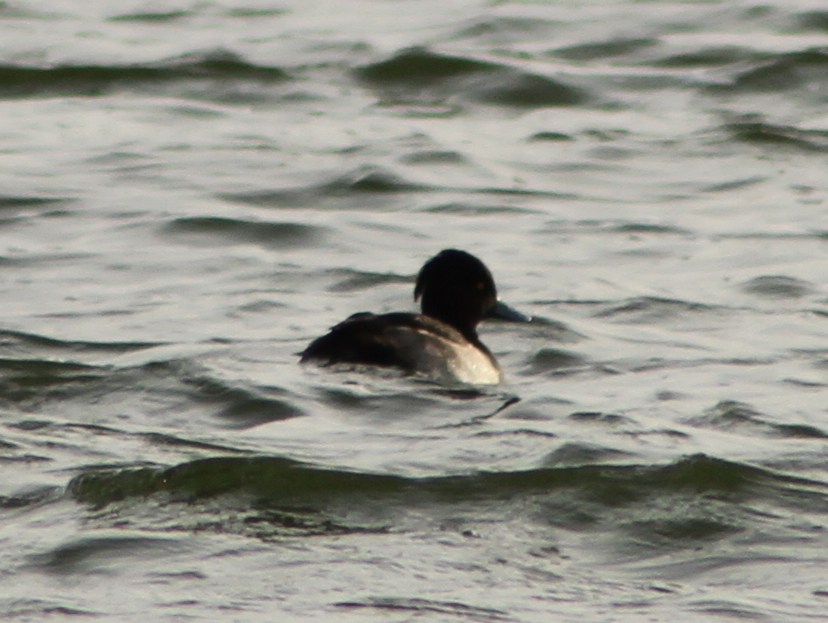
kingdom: Animalia
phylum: Chordata
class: Aves
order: Anseriformes
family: Anatidae
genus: Aythya
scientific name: Aythya fuligula
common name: Tufted duck
